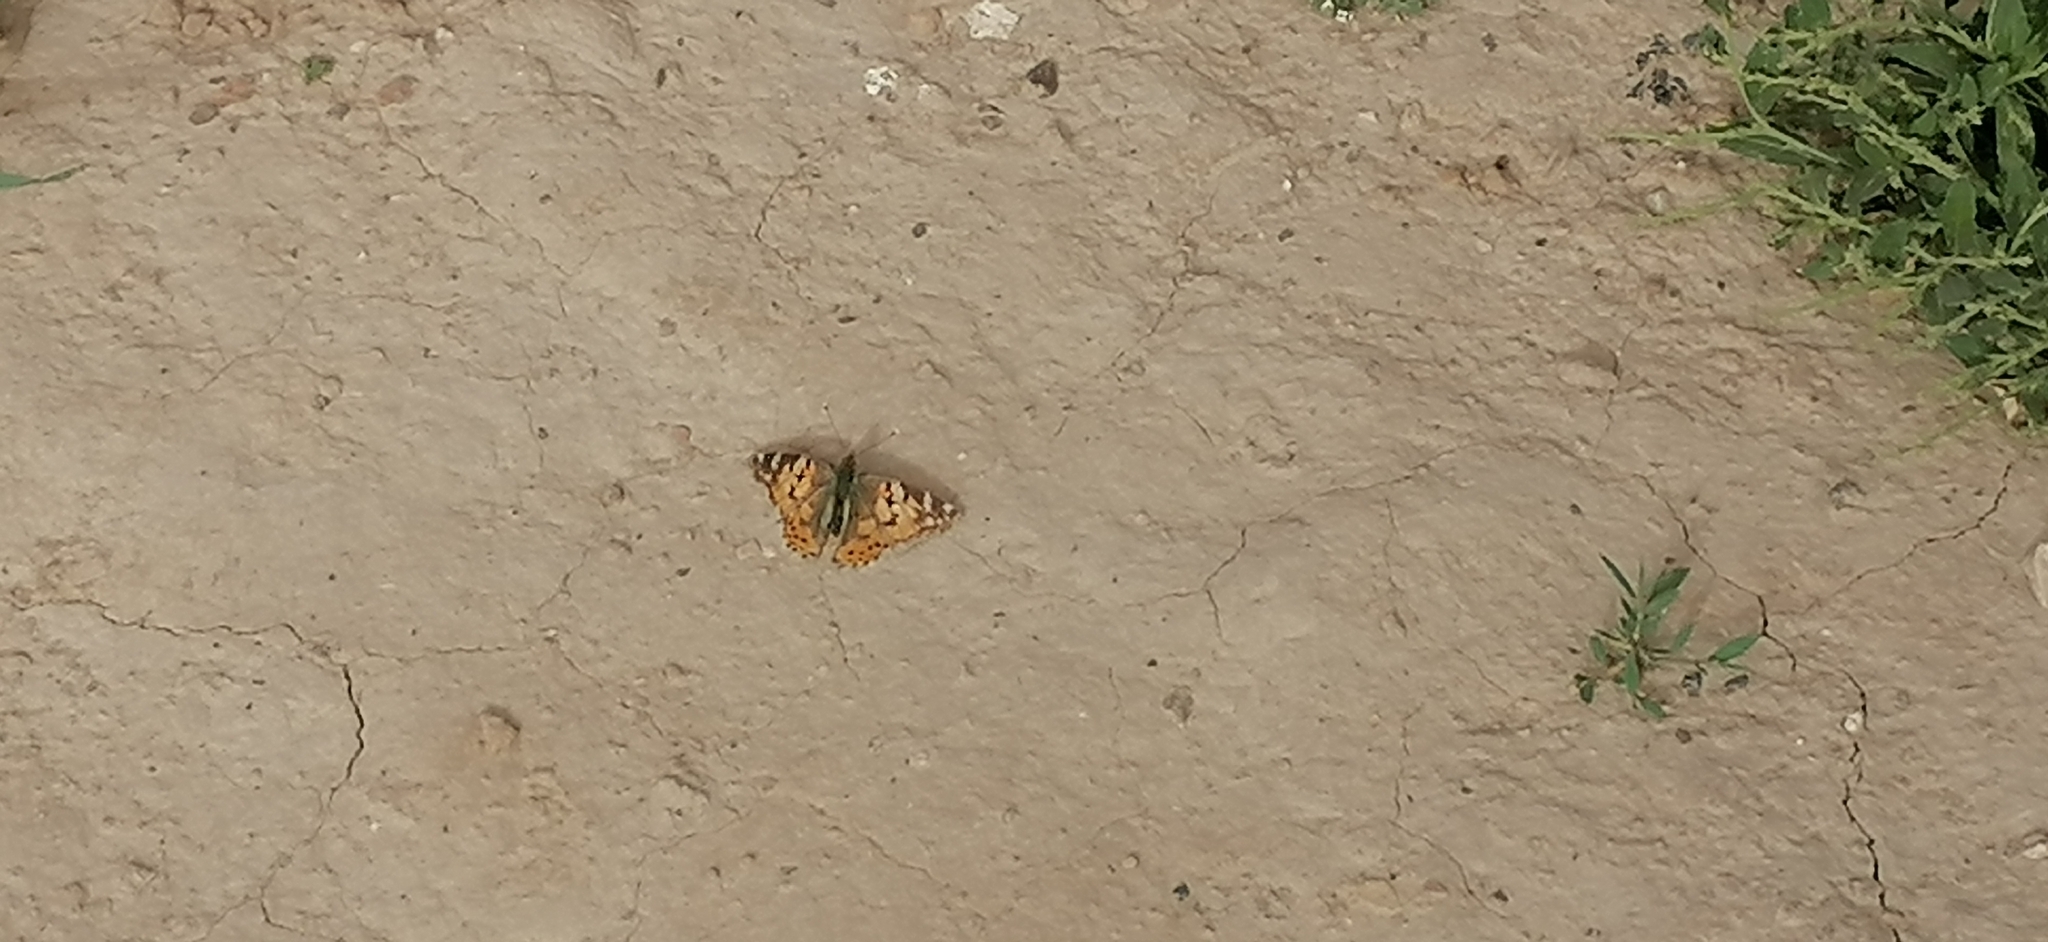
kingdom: Animalia
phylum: Arthropoda
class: Insecta
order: Lepidoptera
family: Nymphalidae
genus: Vanessa
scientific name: Vanessa cardui
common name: Painted lady
